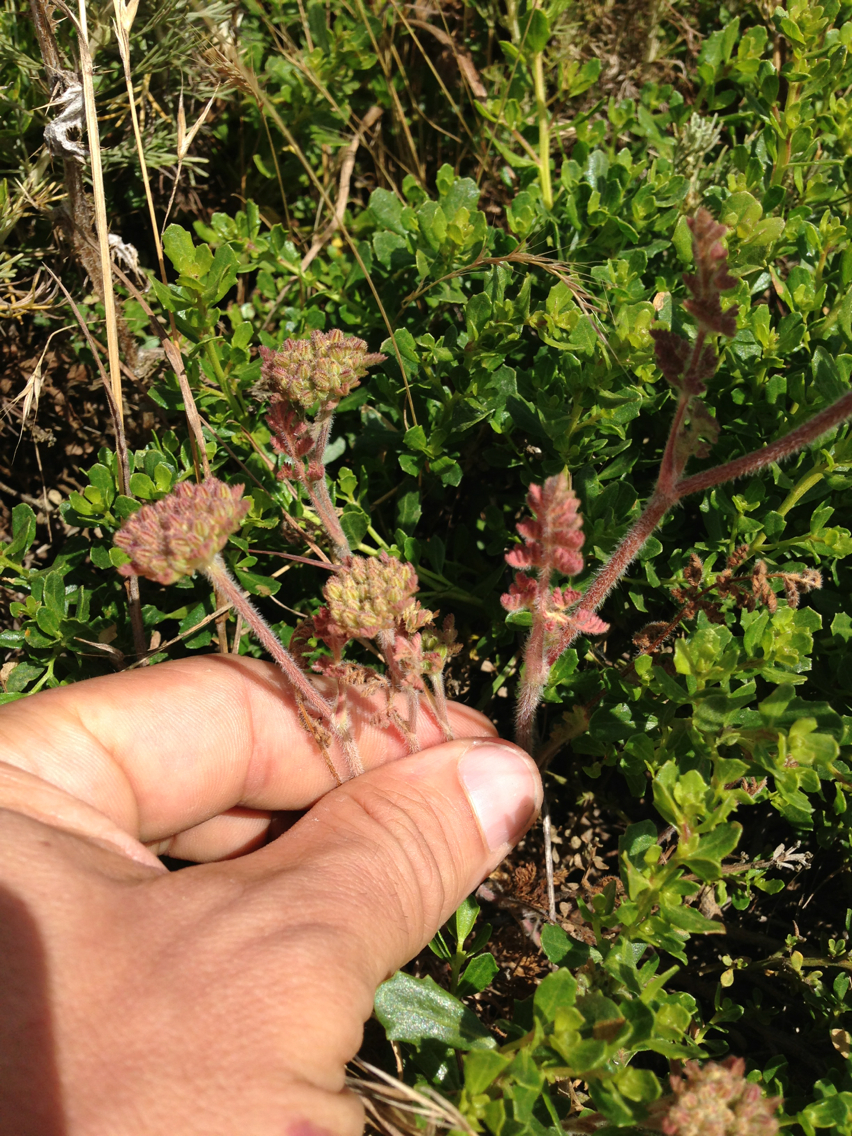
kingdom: Plantae
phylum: Tracheophyta
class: Magnoliopsida
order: Apiales
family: Apiaceae
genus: Daucus
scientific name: Daucus pusillus
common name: Southwest wild carrot
